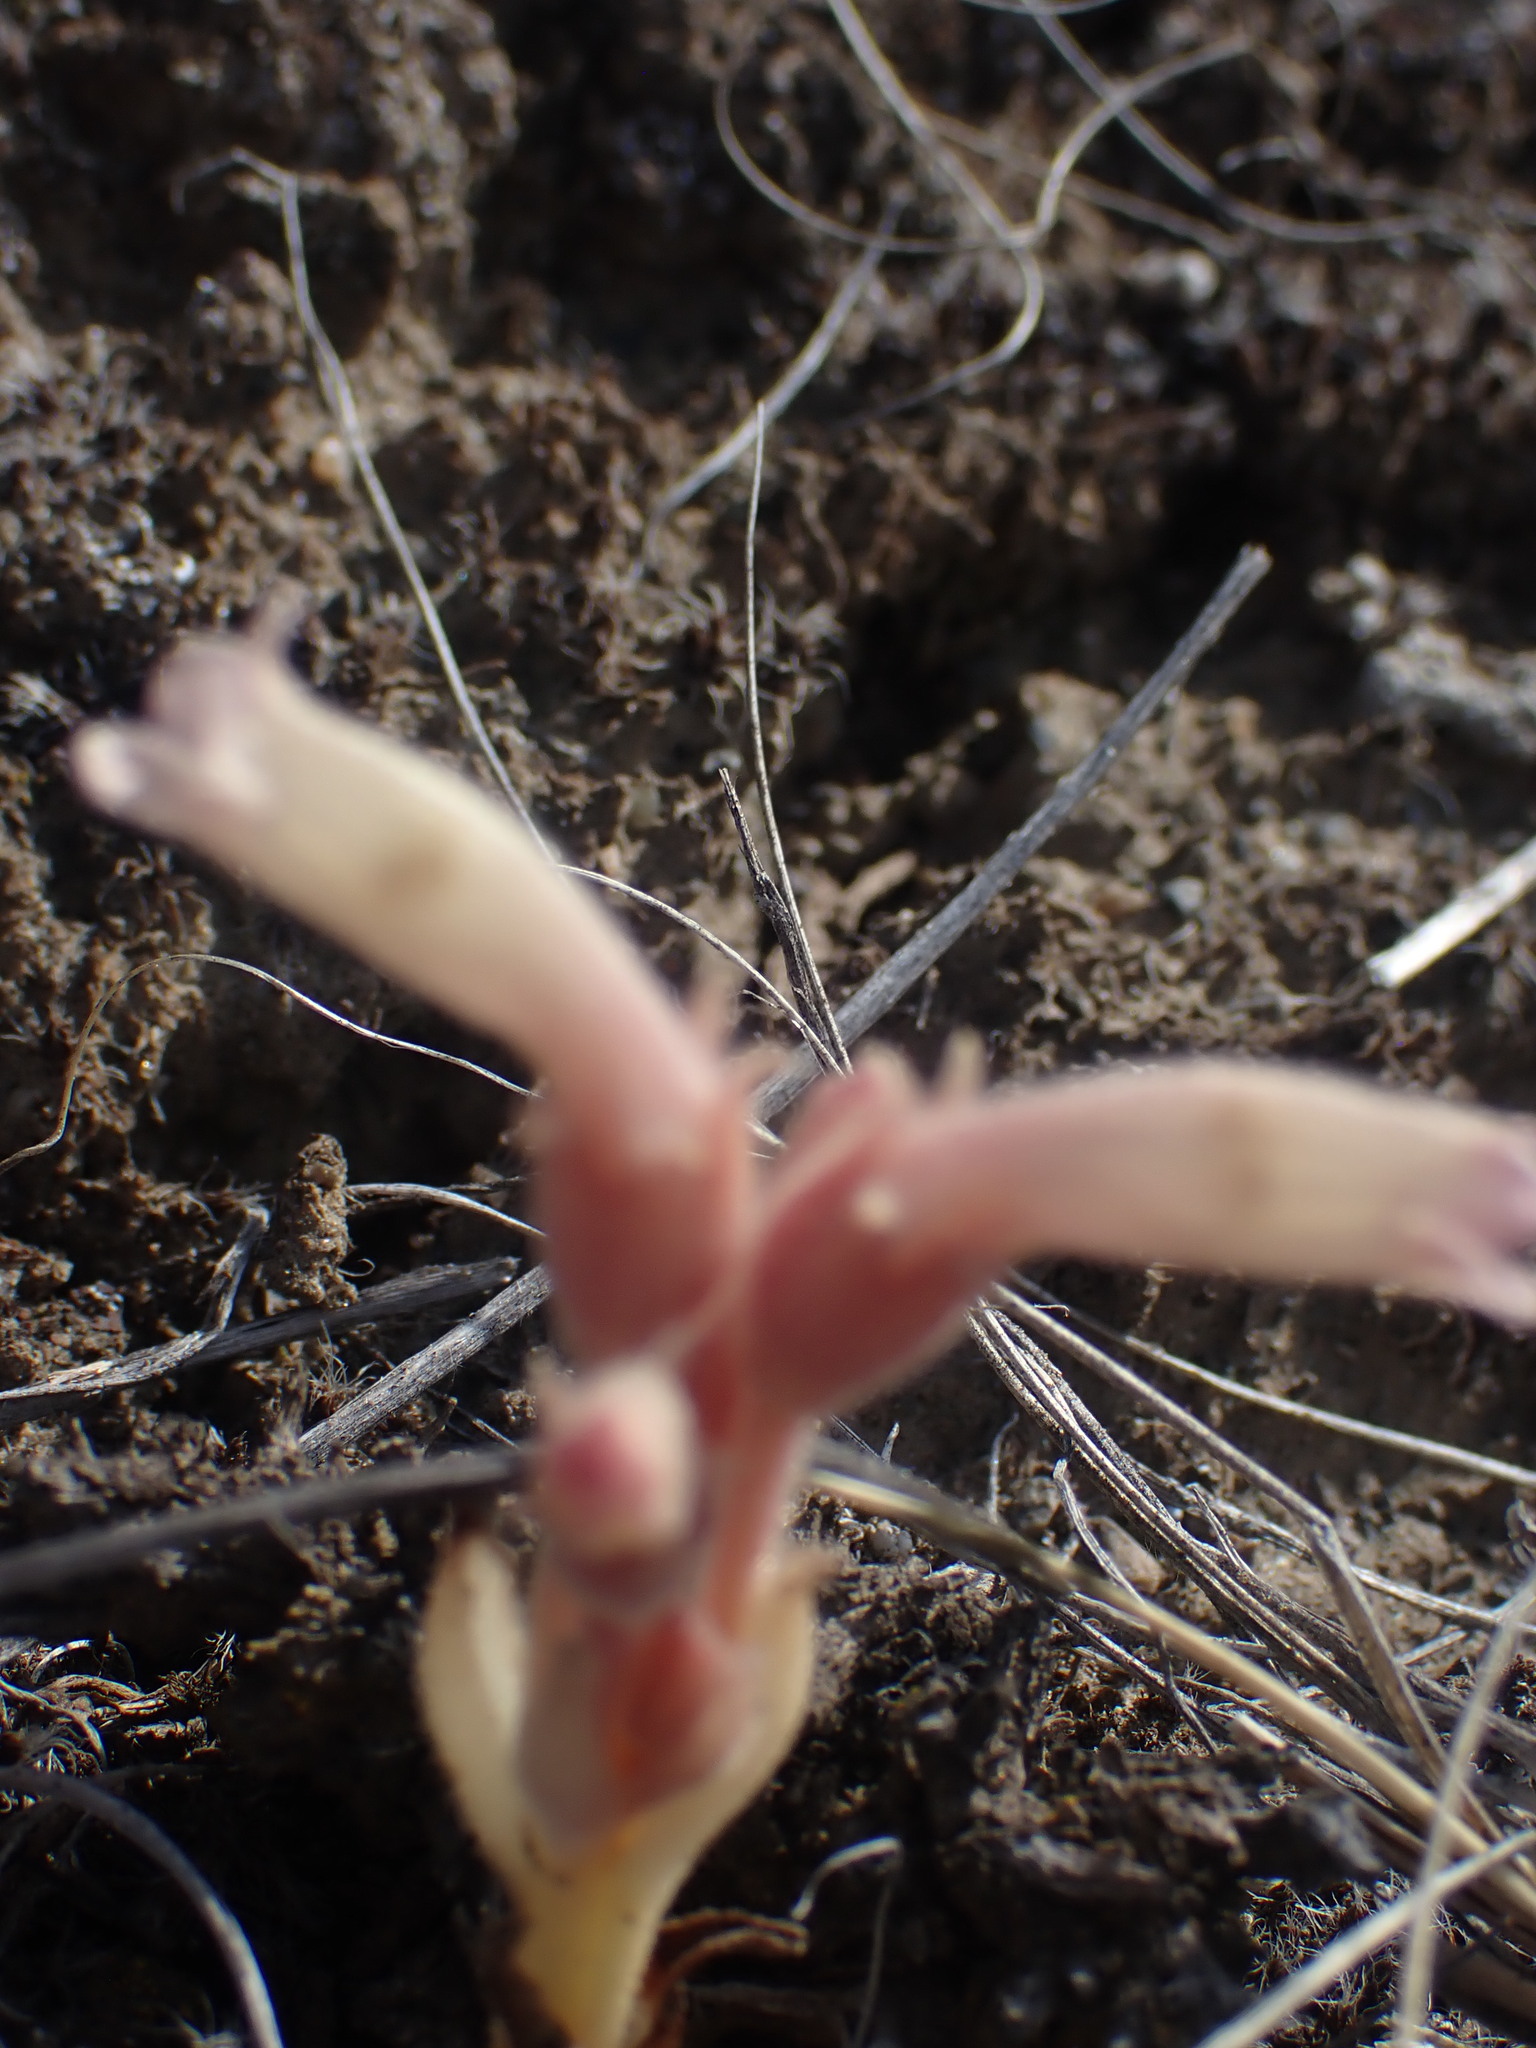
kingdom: Plantae
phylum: Tracheophyta
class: Magnoliopsida
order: Lamiales
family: Orobanchaceae
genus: Aphyllon
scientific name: Aphyllon fasciculatum
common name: Clustered broomrape
